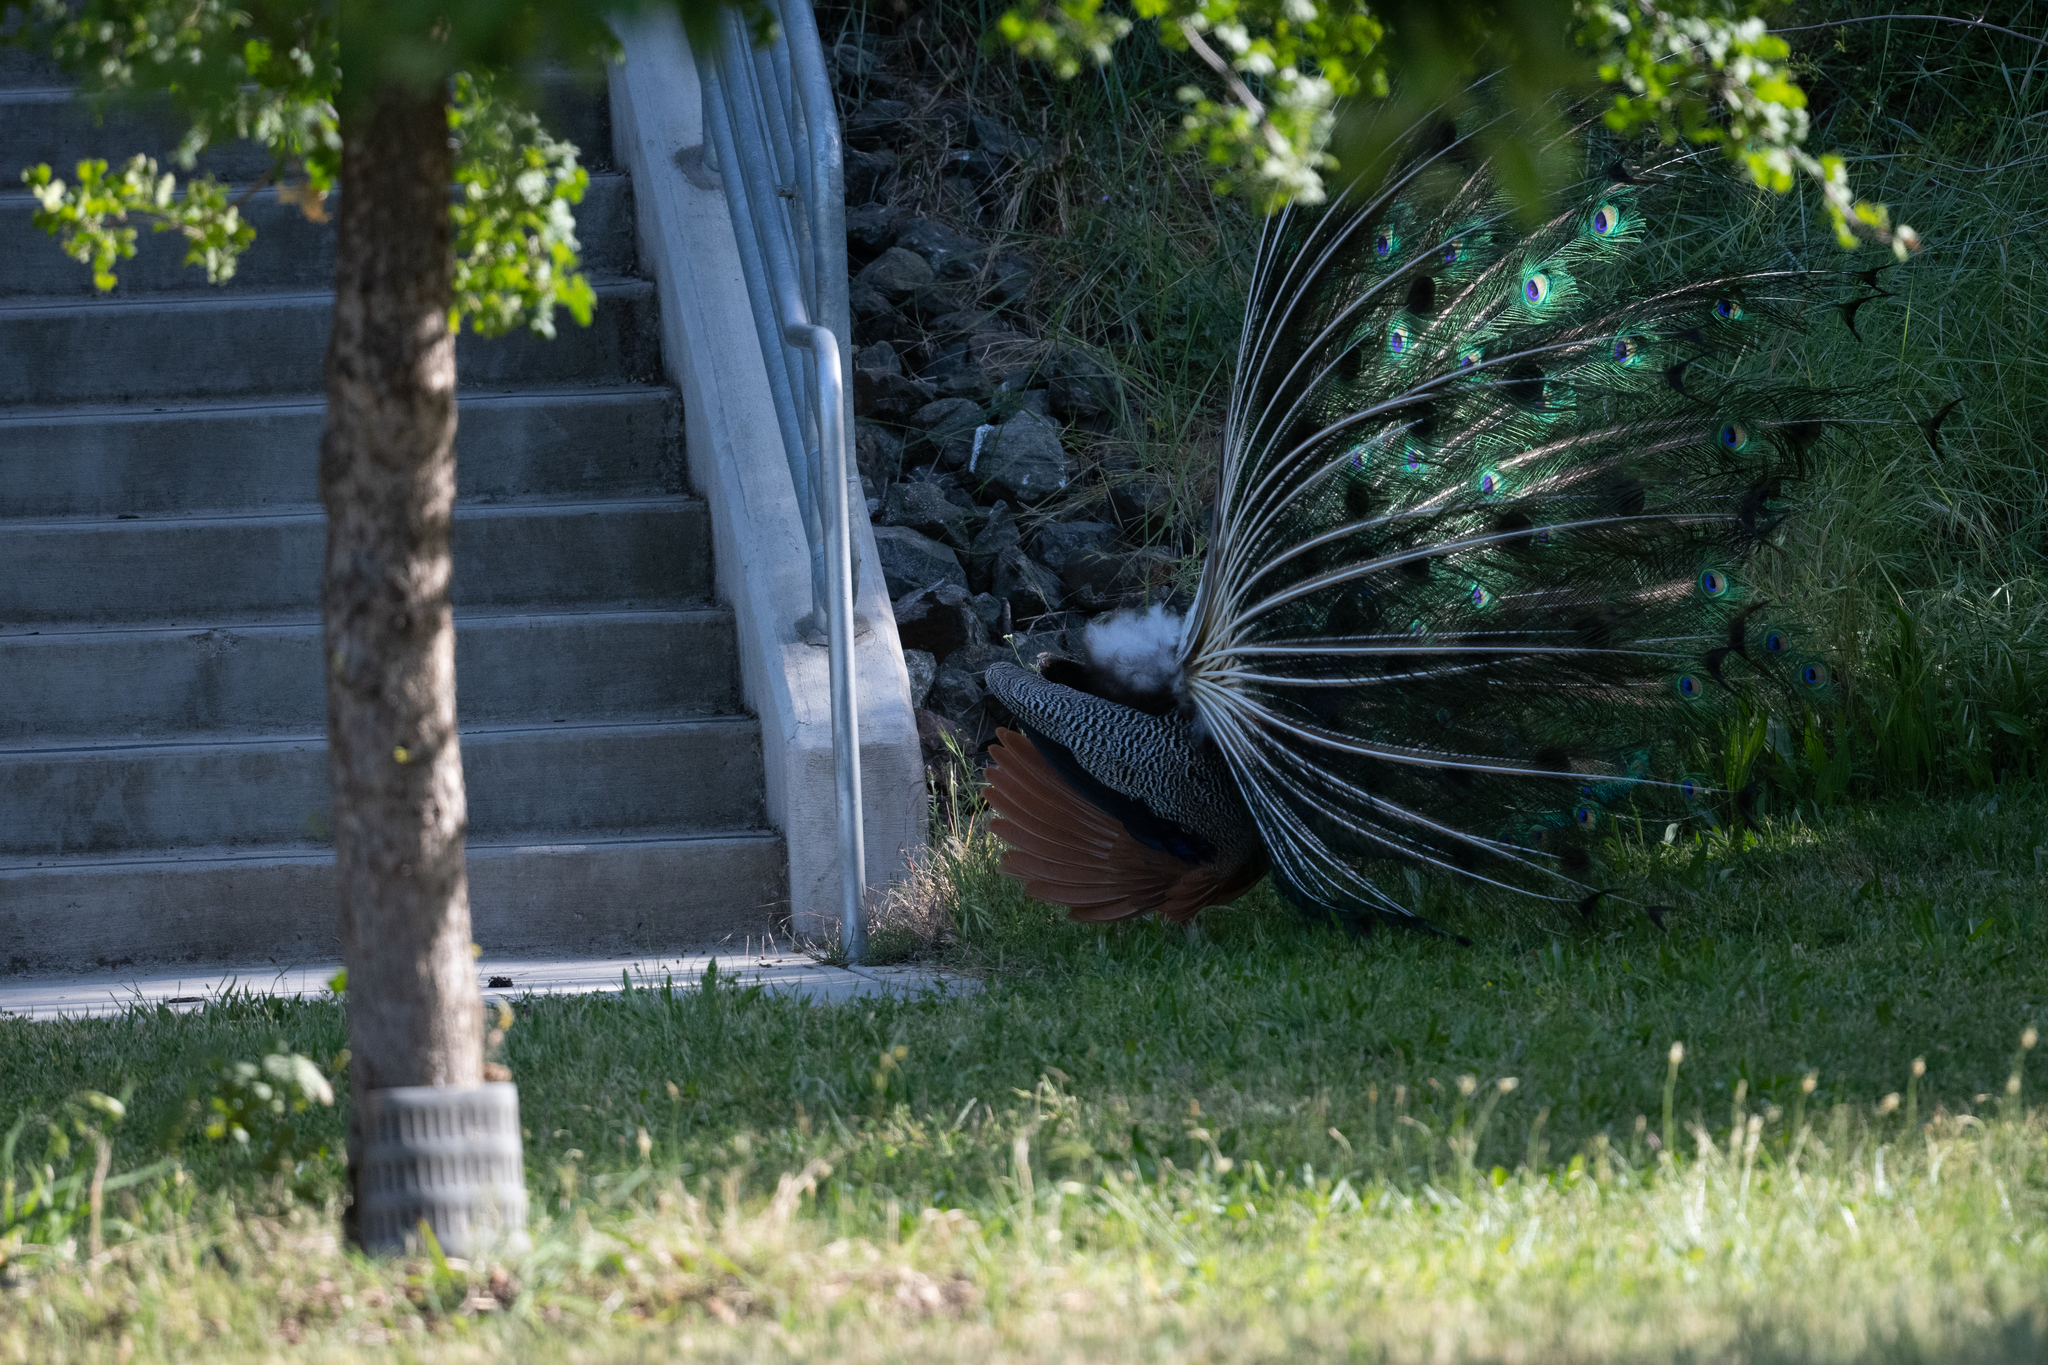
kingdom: Animalia
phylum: Chordata
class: Aves
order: Galliformes
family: Phasianidae
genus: Pavo
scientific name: Pavo cristatus
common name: Indian peafowl
